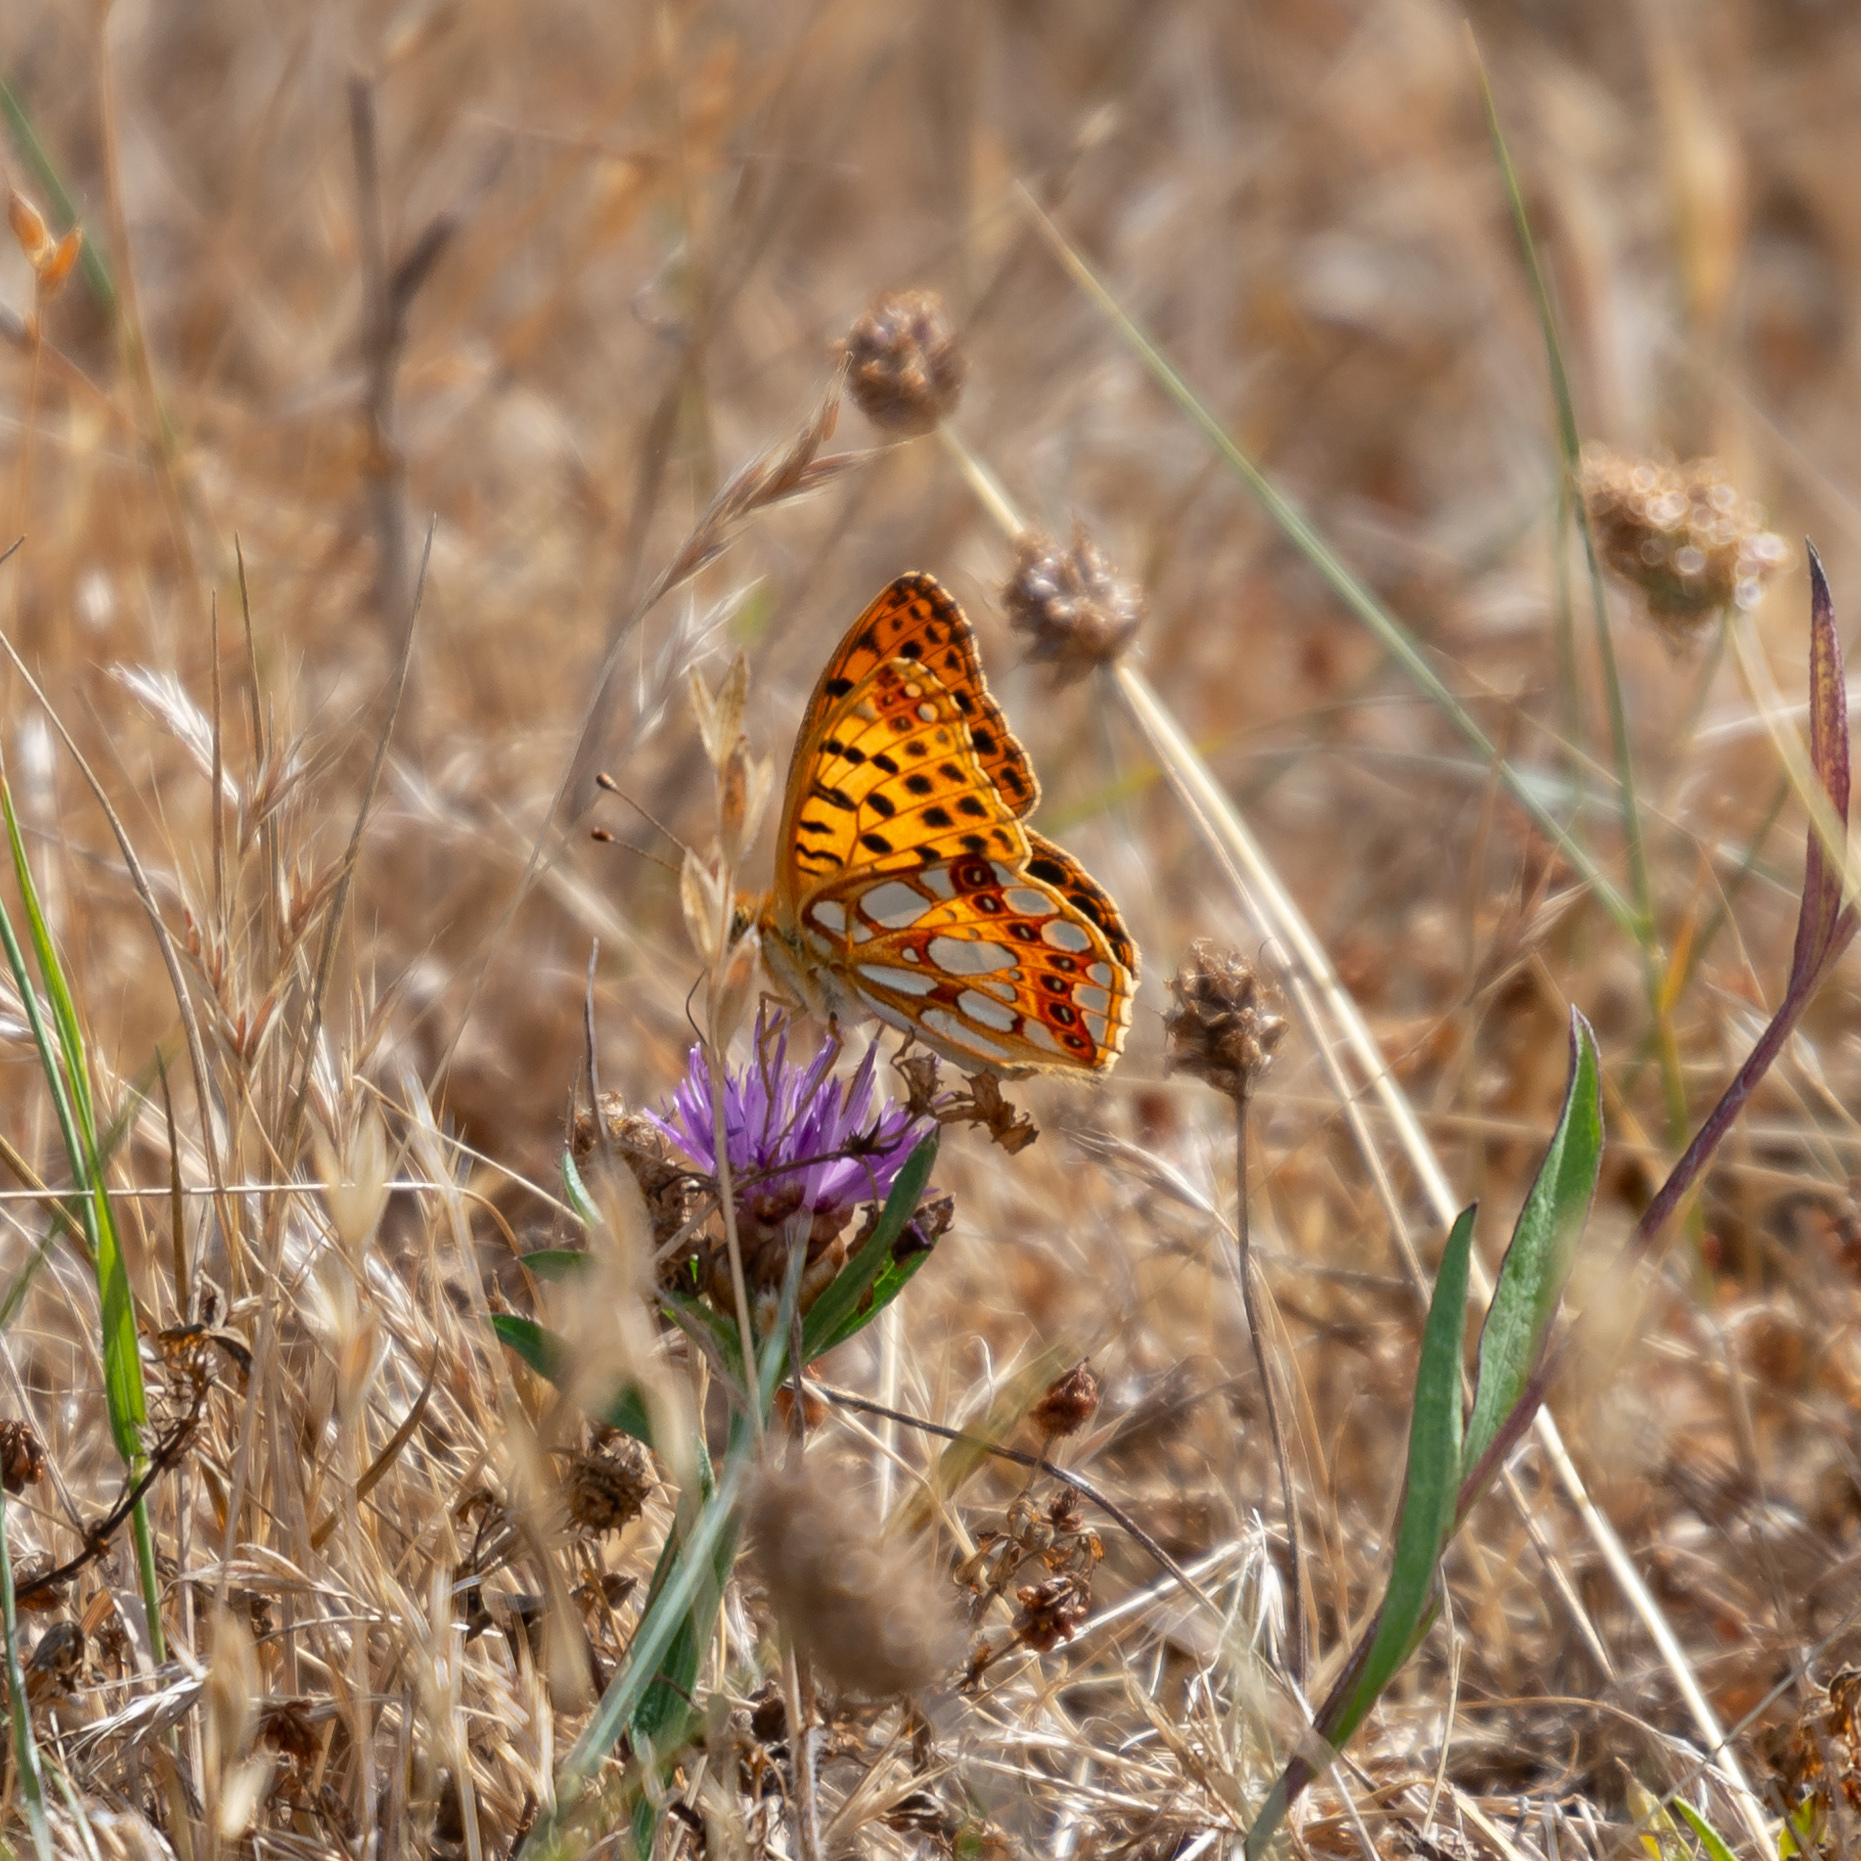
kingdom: Animalia
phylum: Arthropoda
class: Insecta
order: Lepidoptera
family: Nymphalidae
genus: Issoria
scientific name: Issoria lathonia
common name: Queen of spain fritillary
